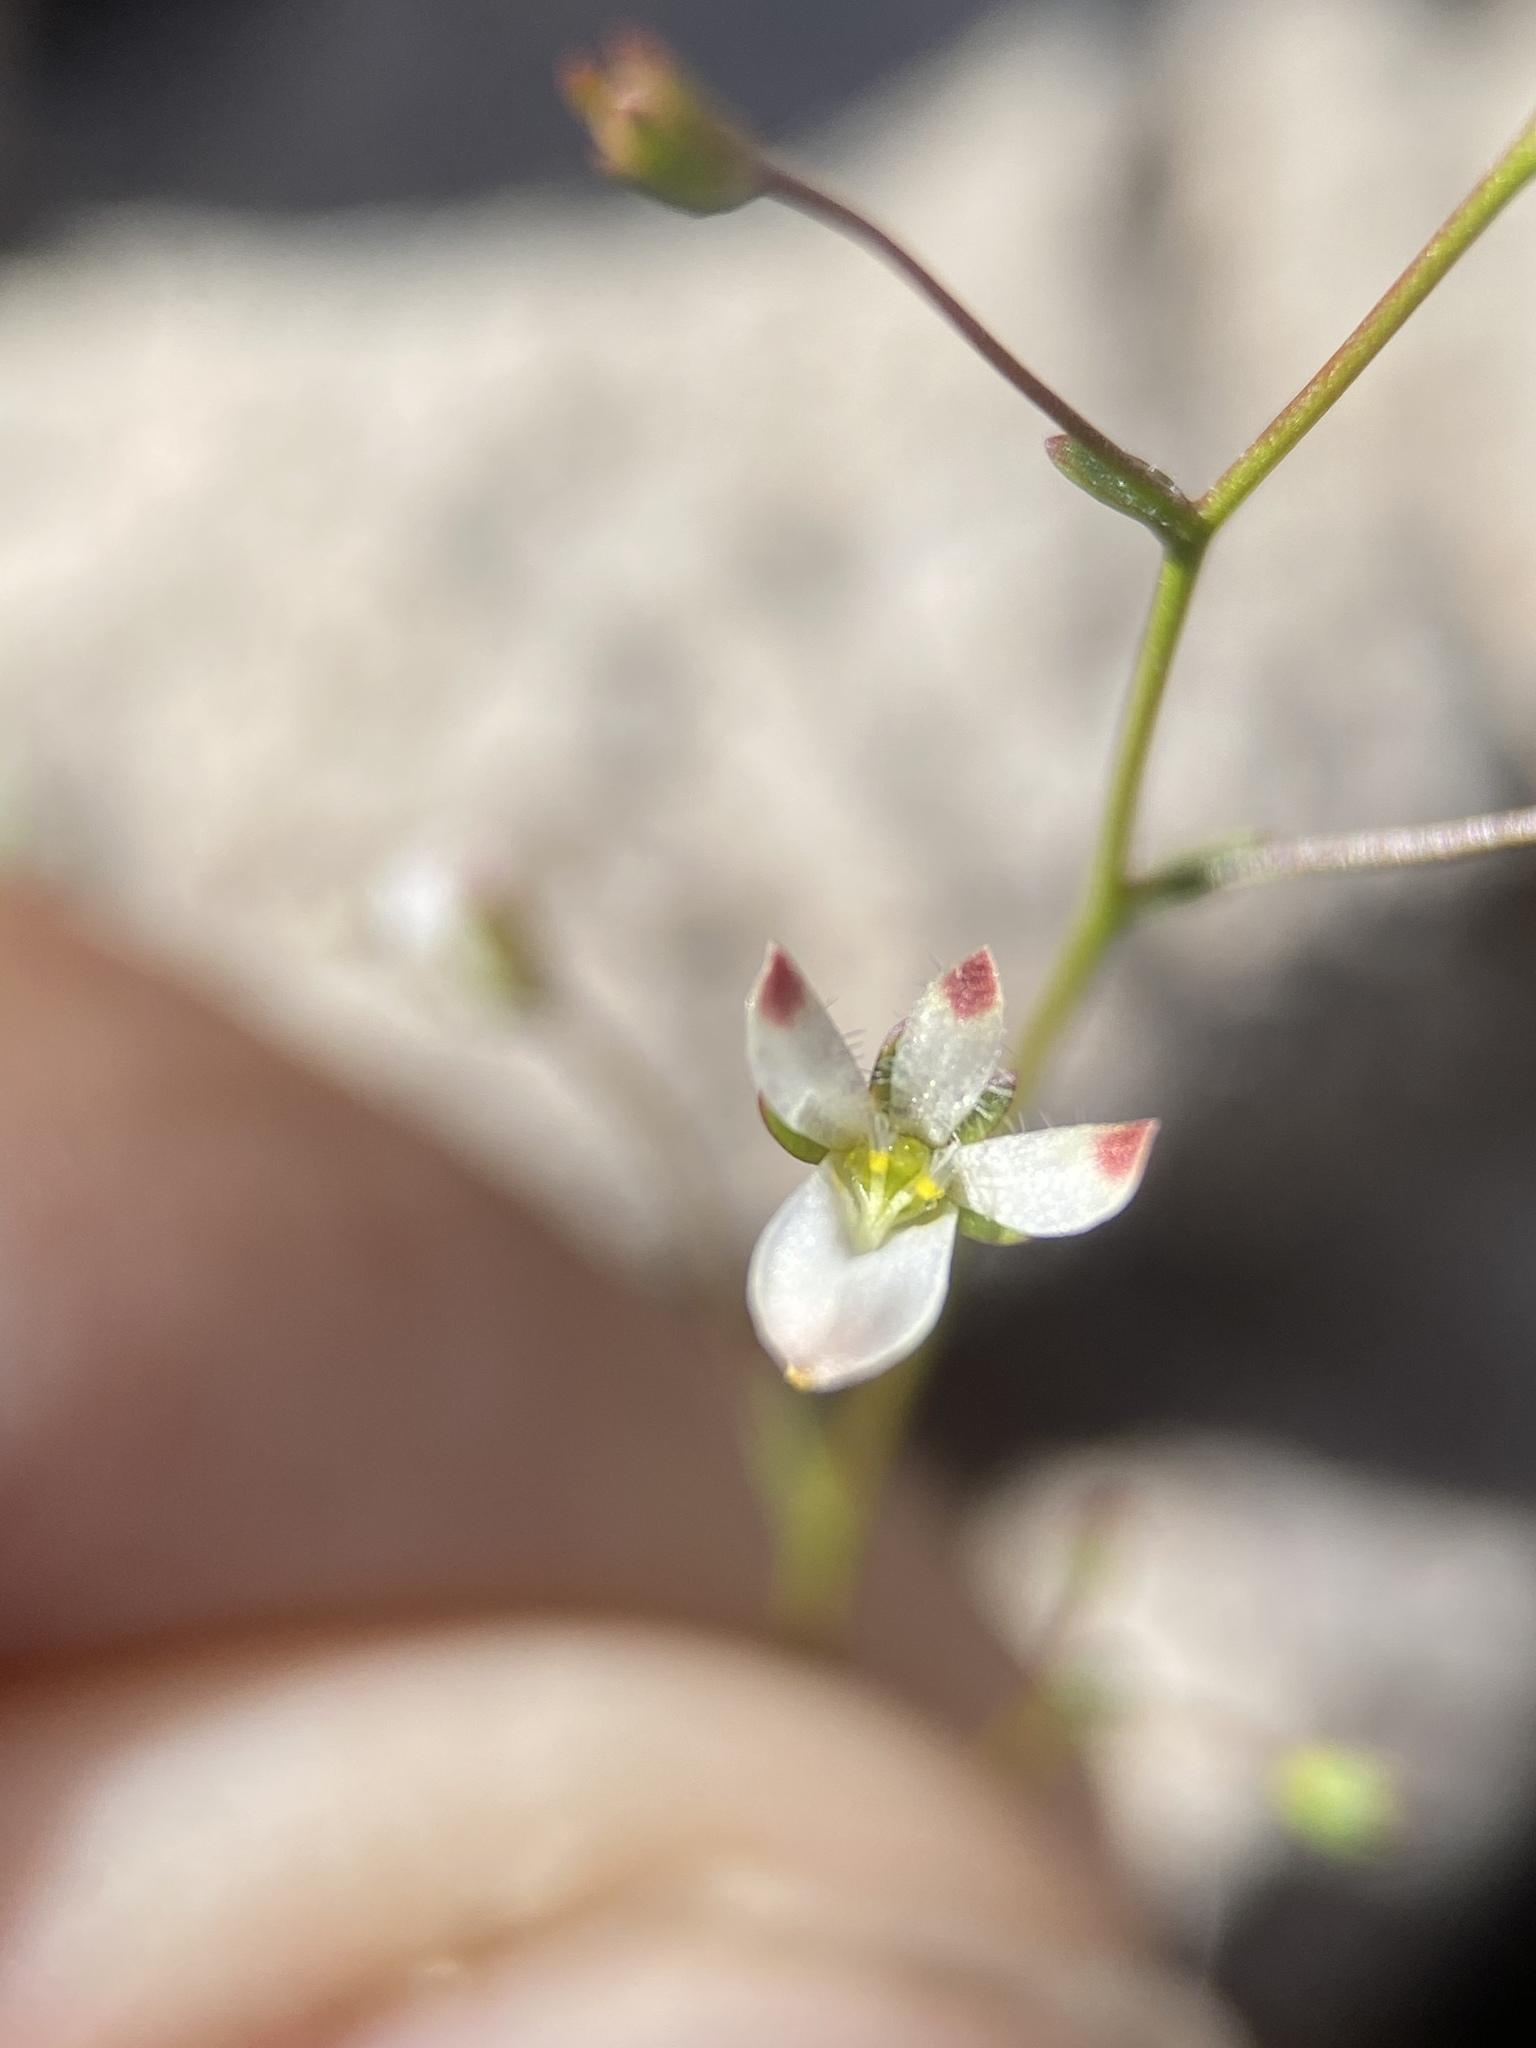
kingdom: Plantae
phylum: Tracheophyta
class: Magnoliopsida
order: Asterales
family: Campanulaceae
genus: Nemacladus
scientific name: Nemacladus orientalis
